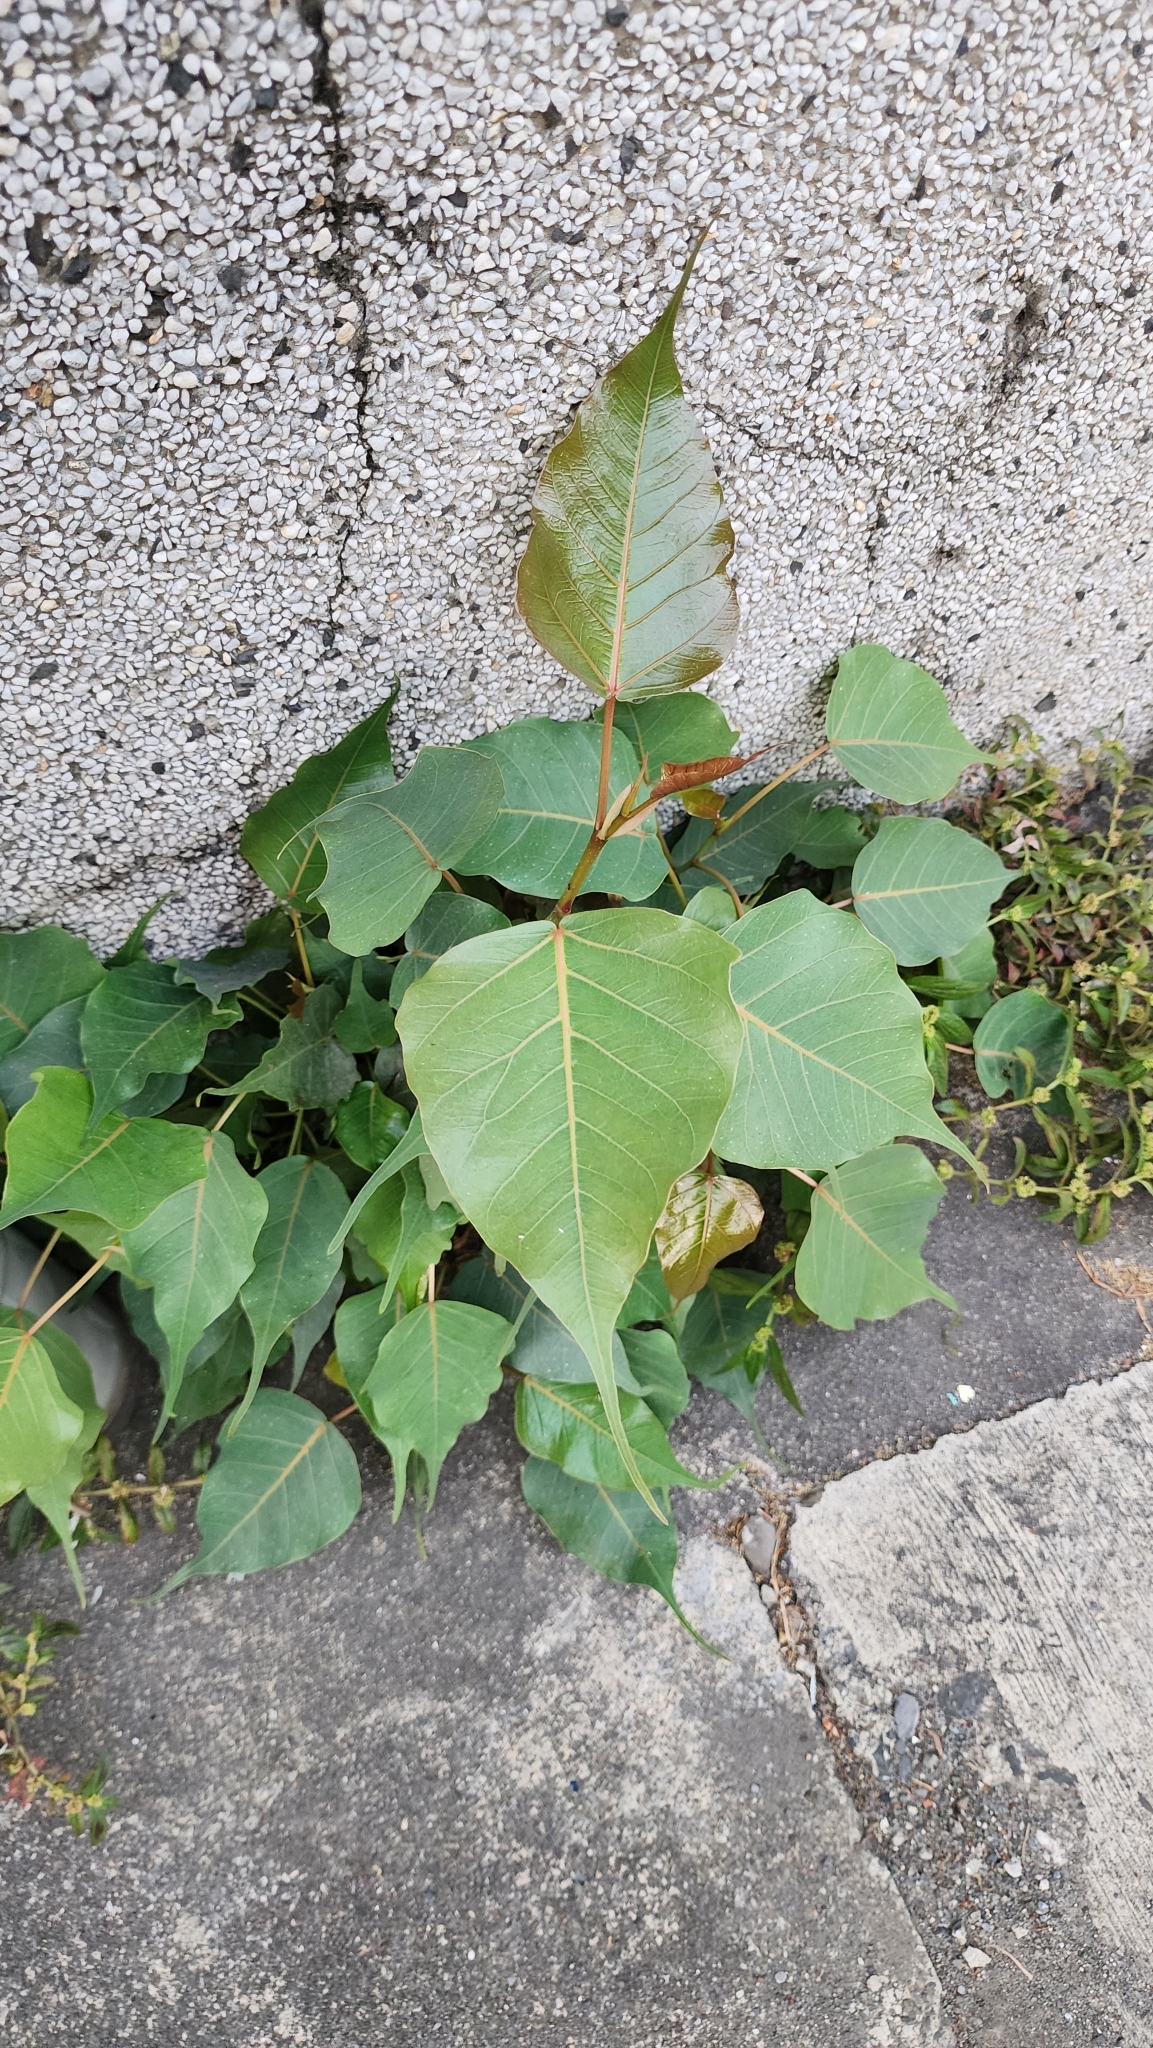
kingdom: Plantae
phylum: Tracheophyta
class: Magnoliopsida
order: Rosales
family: Moraceae
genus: Ficus
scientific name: Ficus religiosa
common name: Bodhi tree
